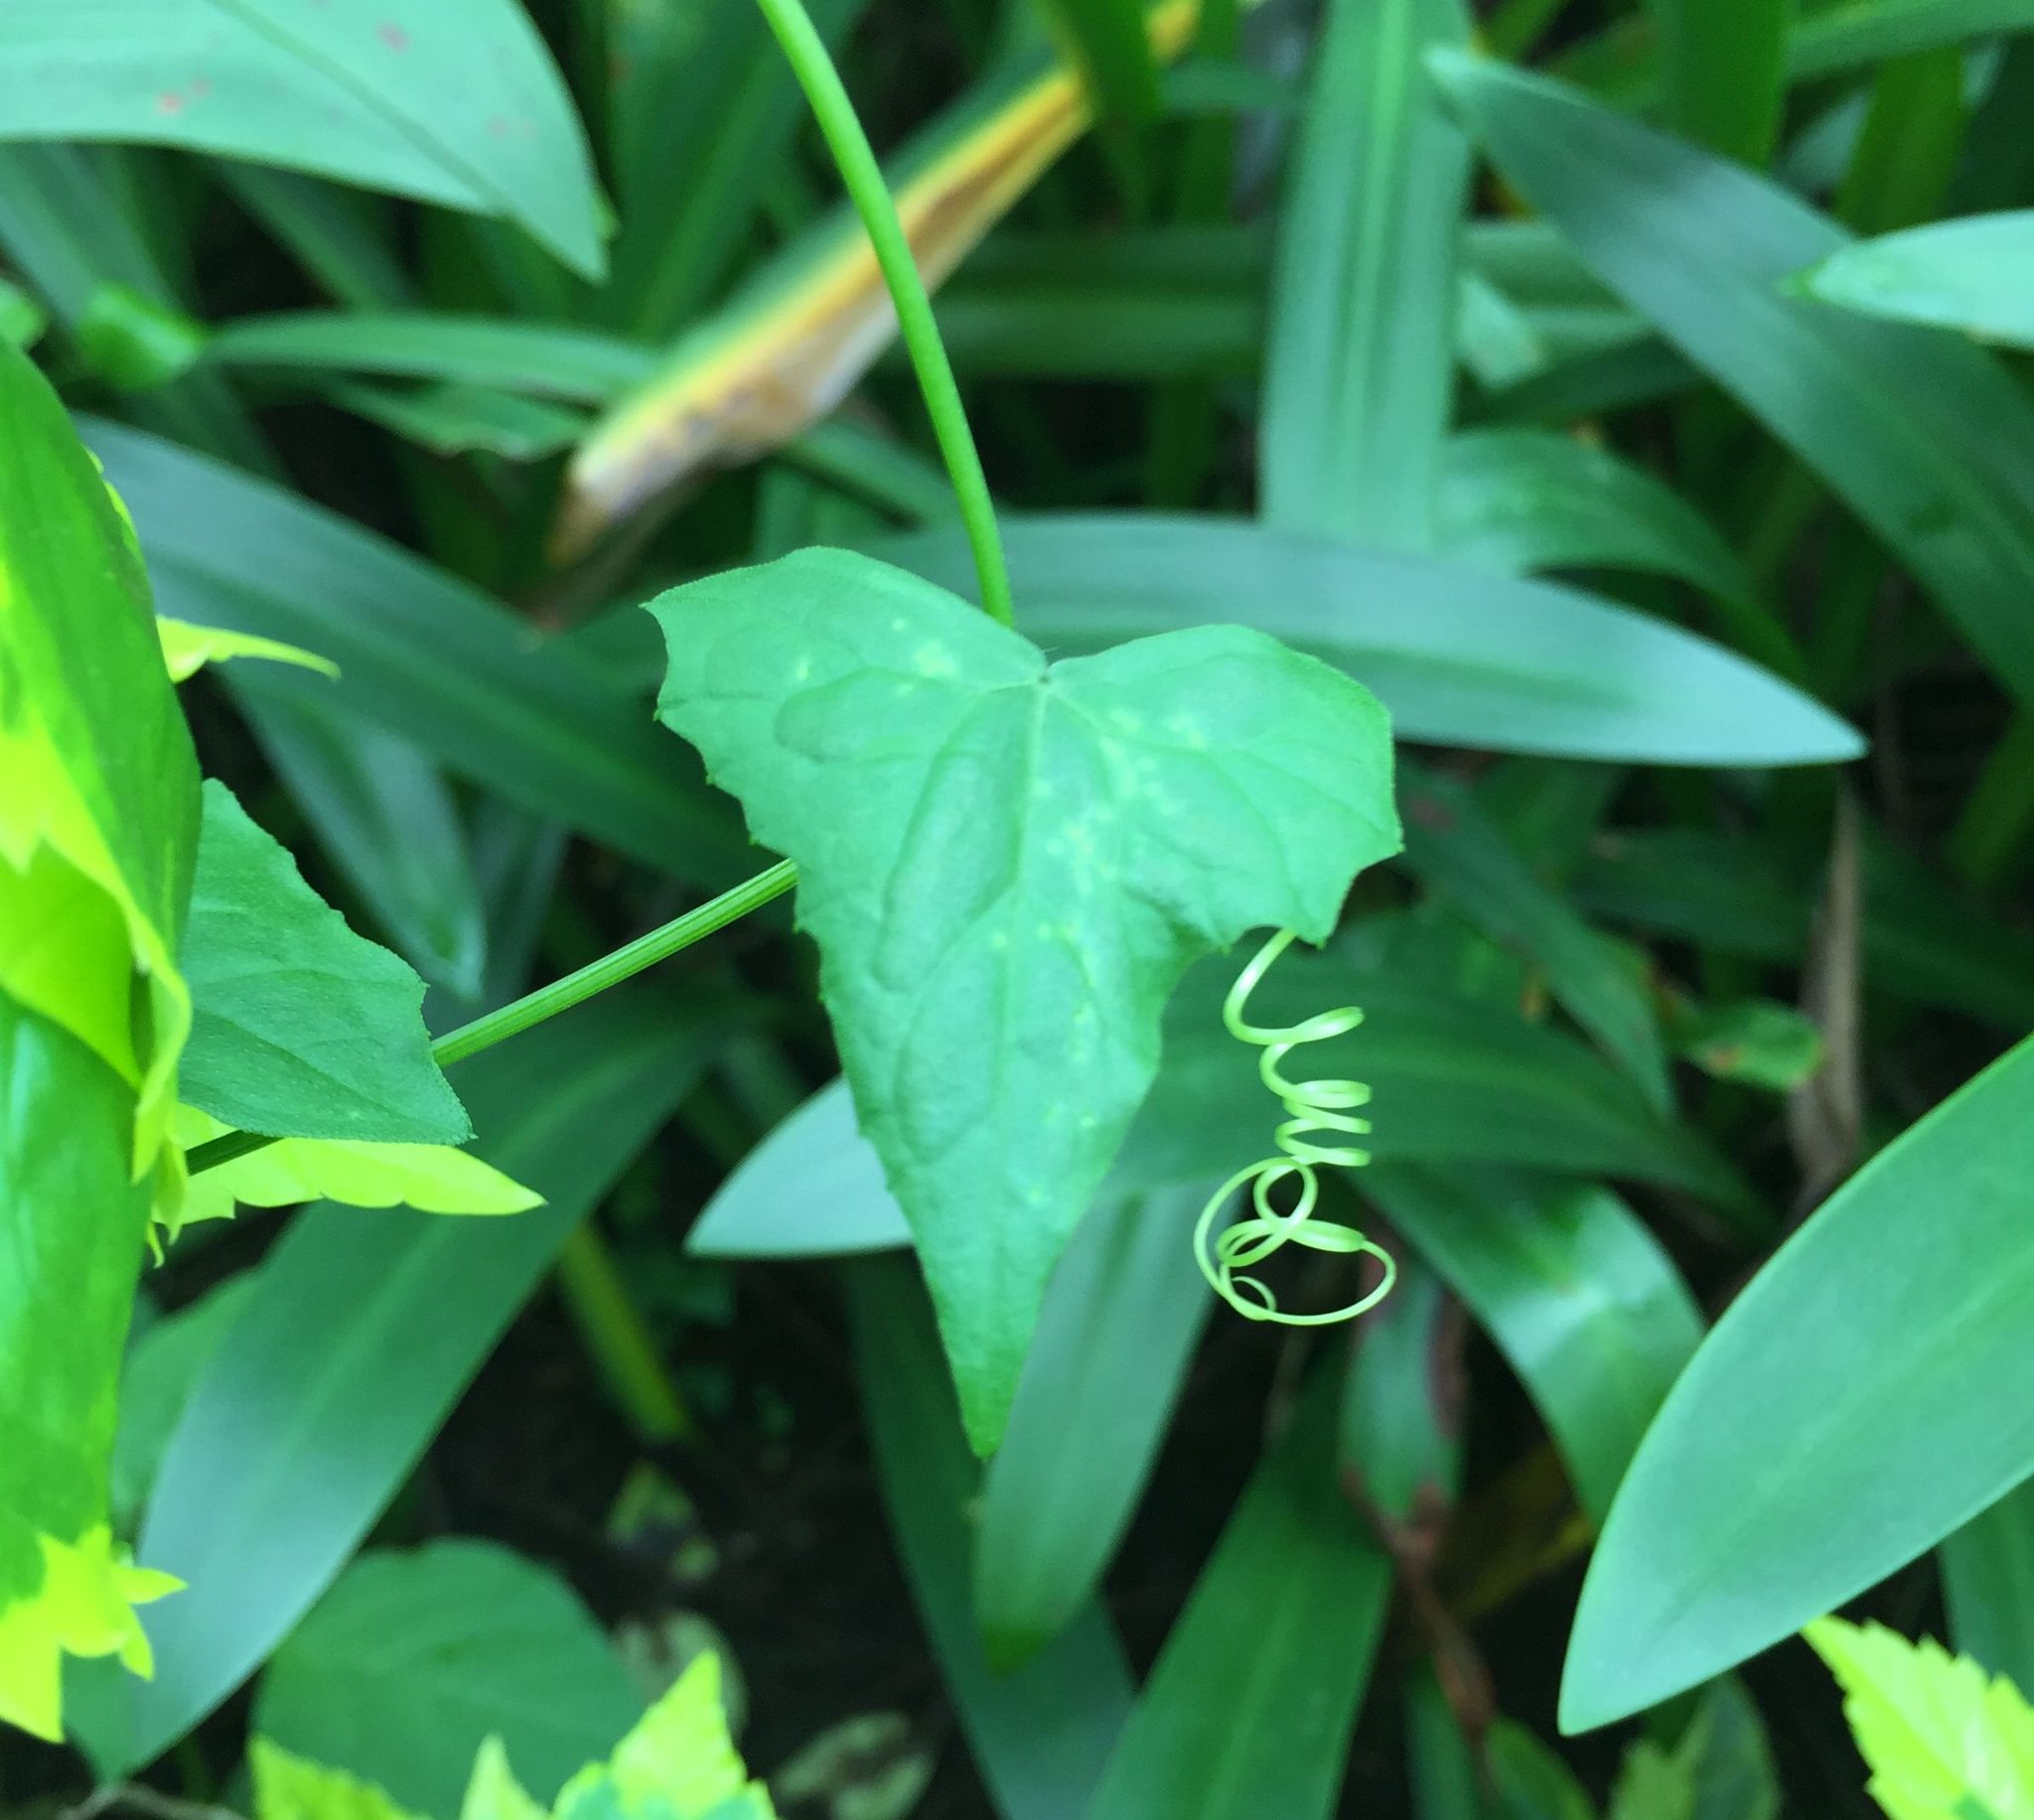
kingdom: Plantae
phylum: Tracheophyta
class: Magnoliopsida
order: Cucurbitales
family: Cucurbitaceae
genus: Solena
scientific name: Solena amplexicaulis
